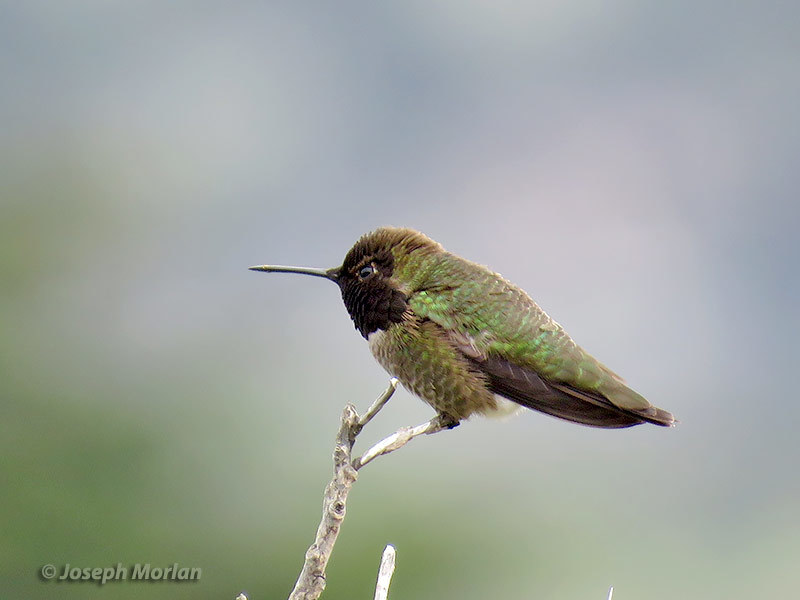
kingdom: Animalia
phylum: Chordata
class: Aves
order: Apodiformes
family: Trochilidae
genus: Calypte
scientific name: Calypte anna
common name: Anna's hummingbird
